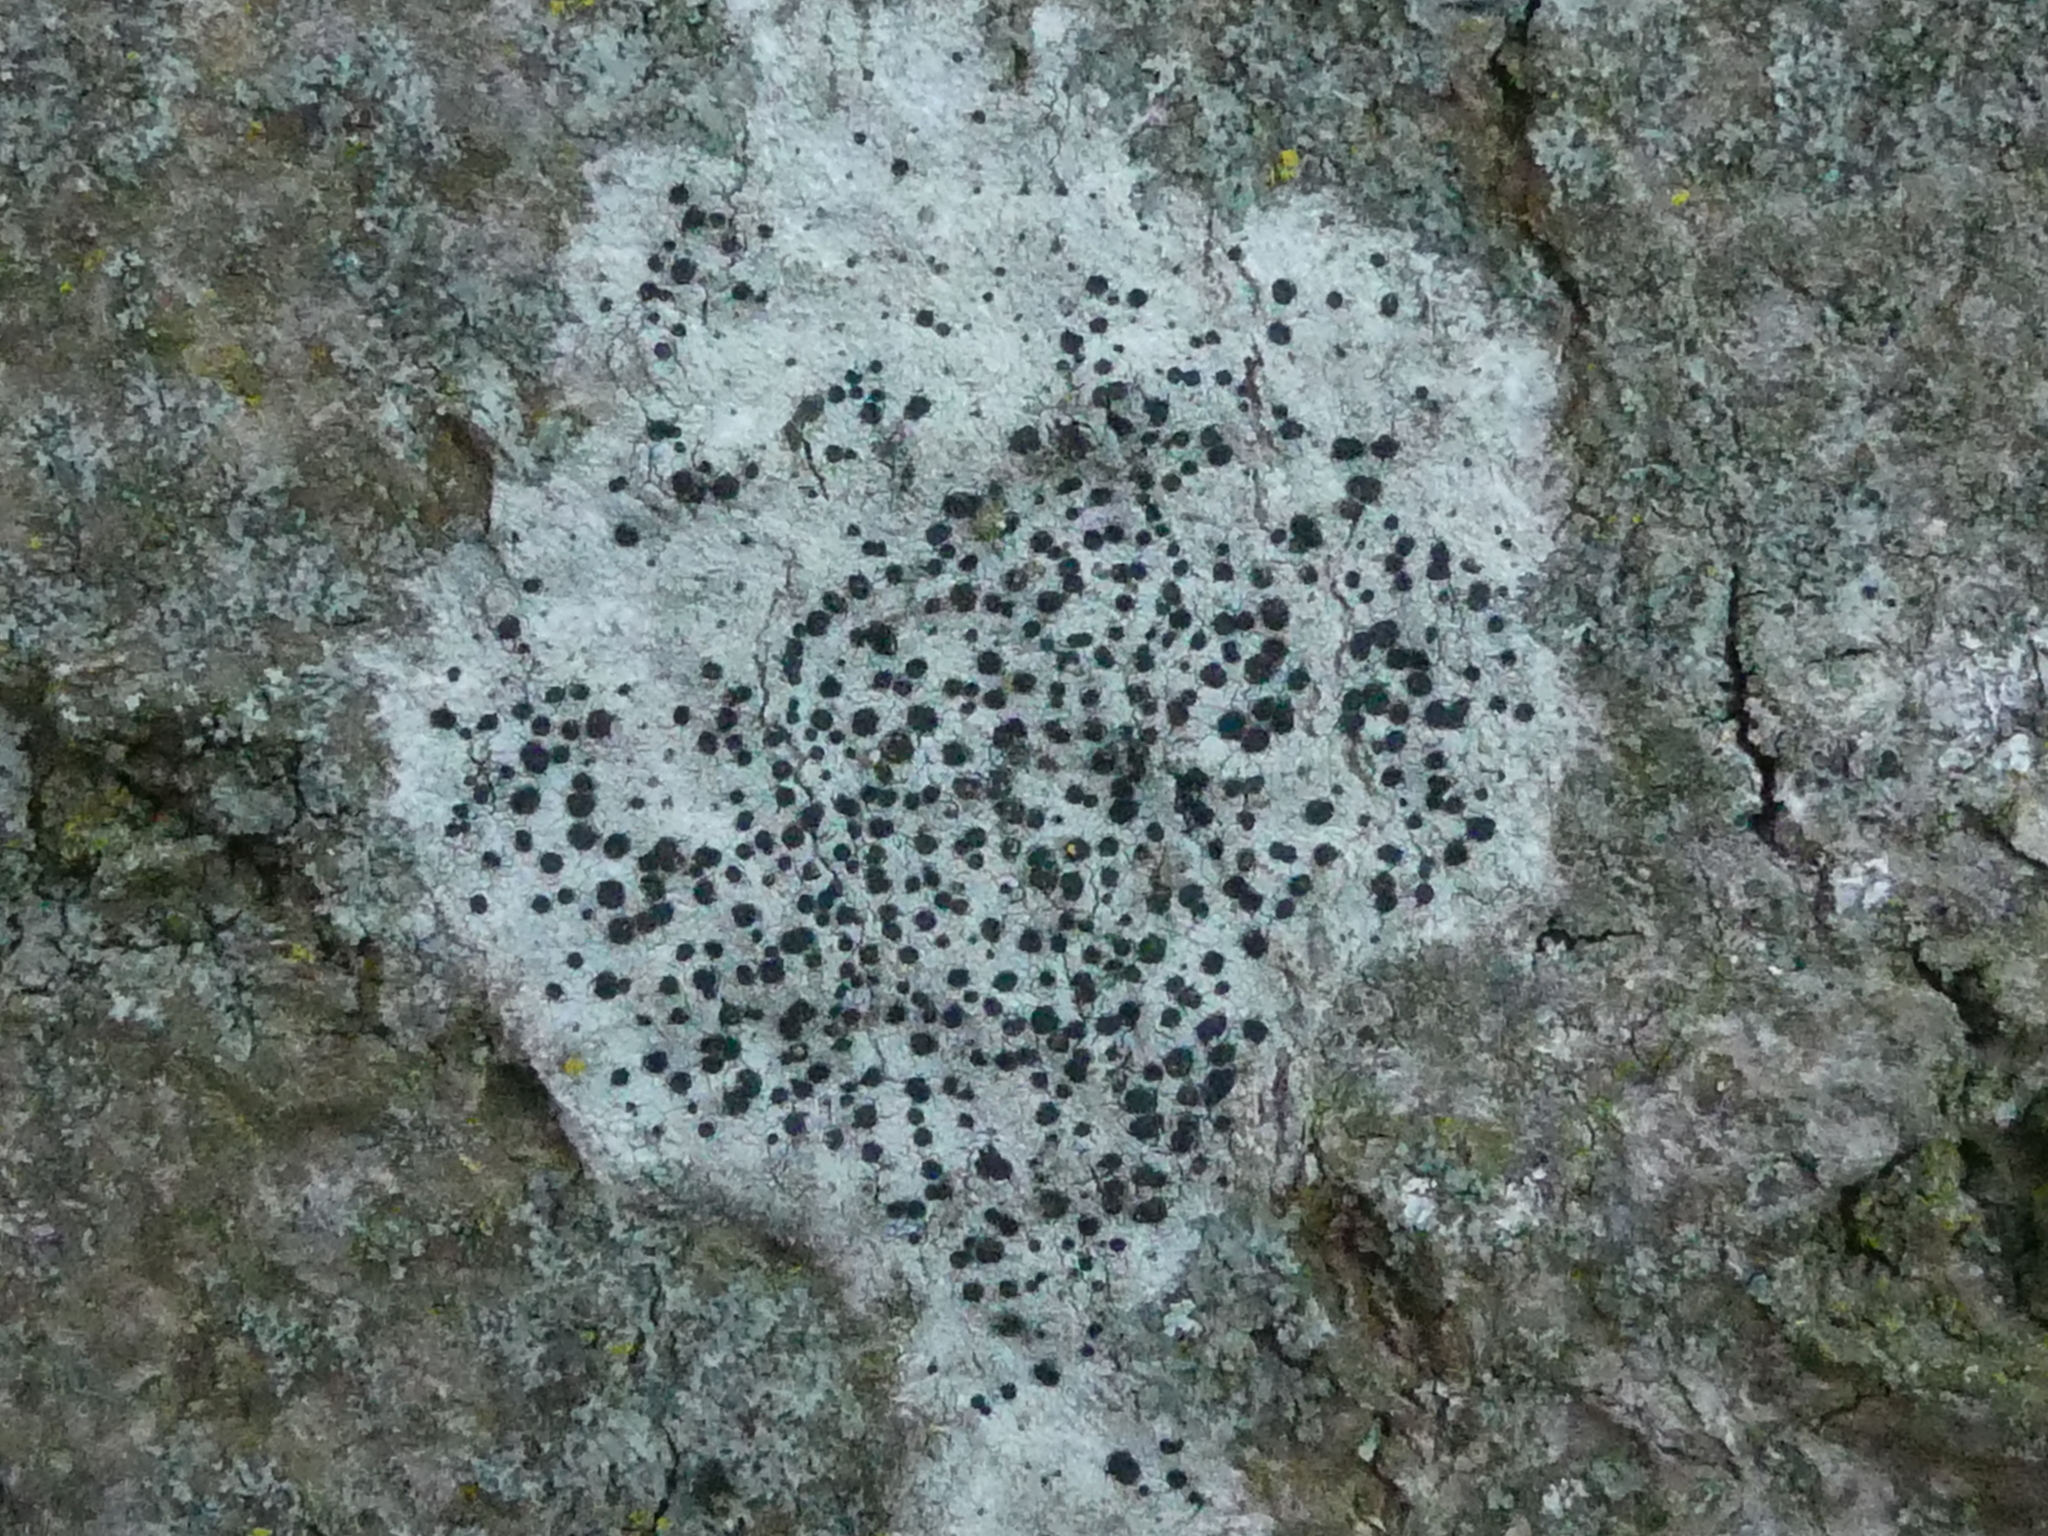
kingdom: Fungi
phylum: Ascomycota
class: Lecanoromycetes
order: Lecanorales
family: Lecanoraceae
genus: Lecidella
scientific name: Lecidella elaeochroma
